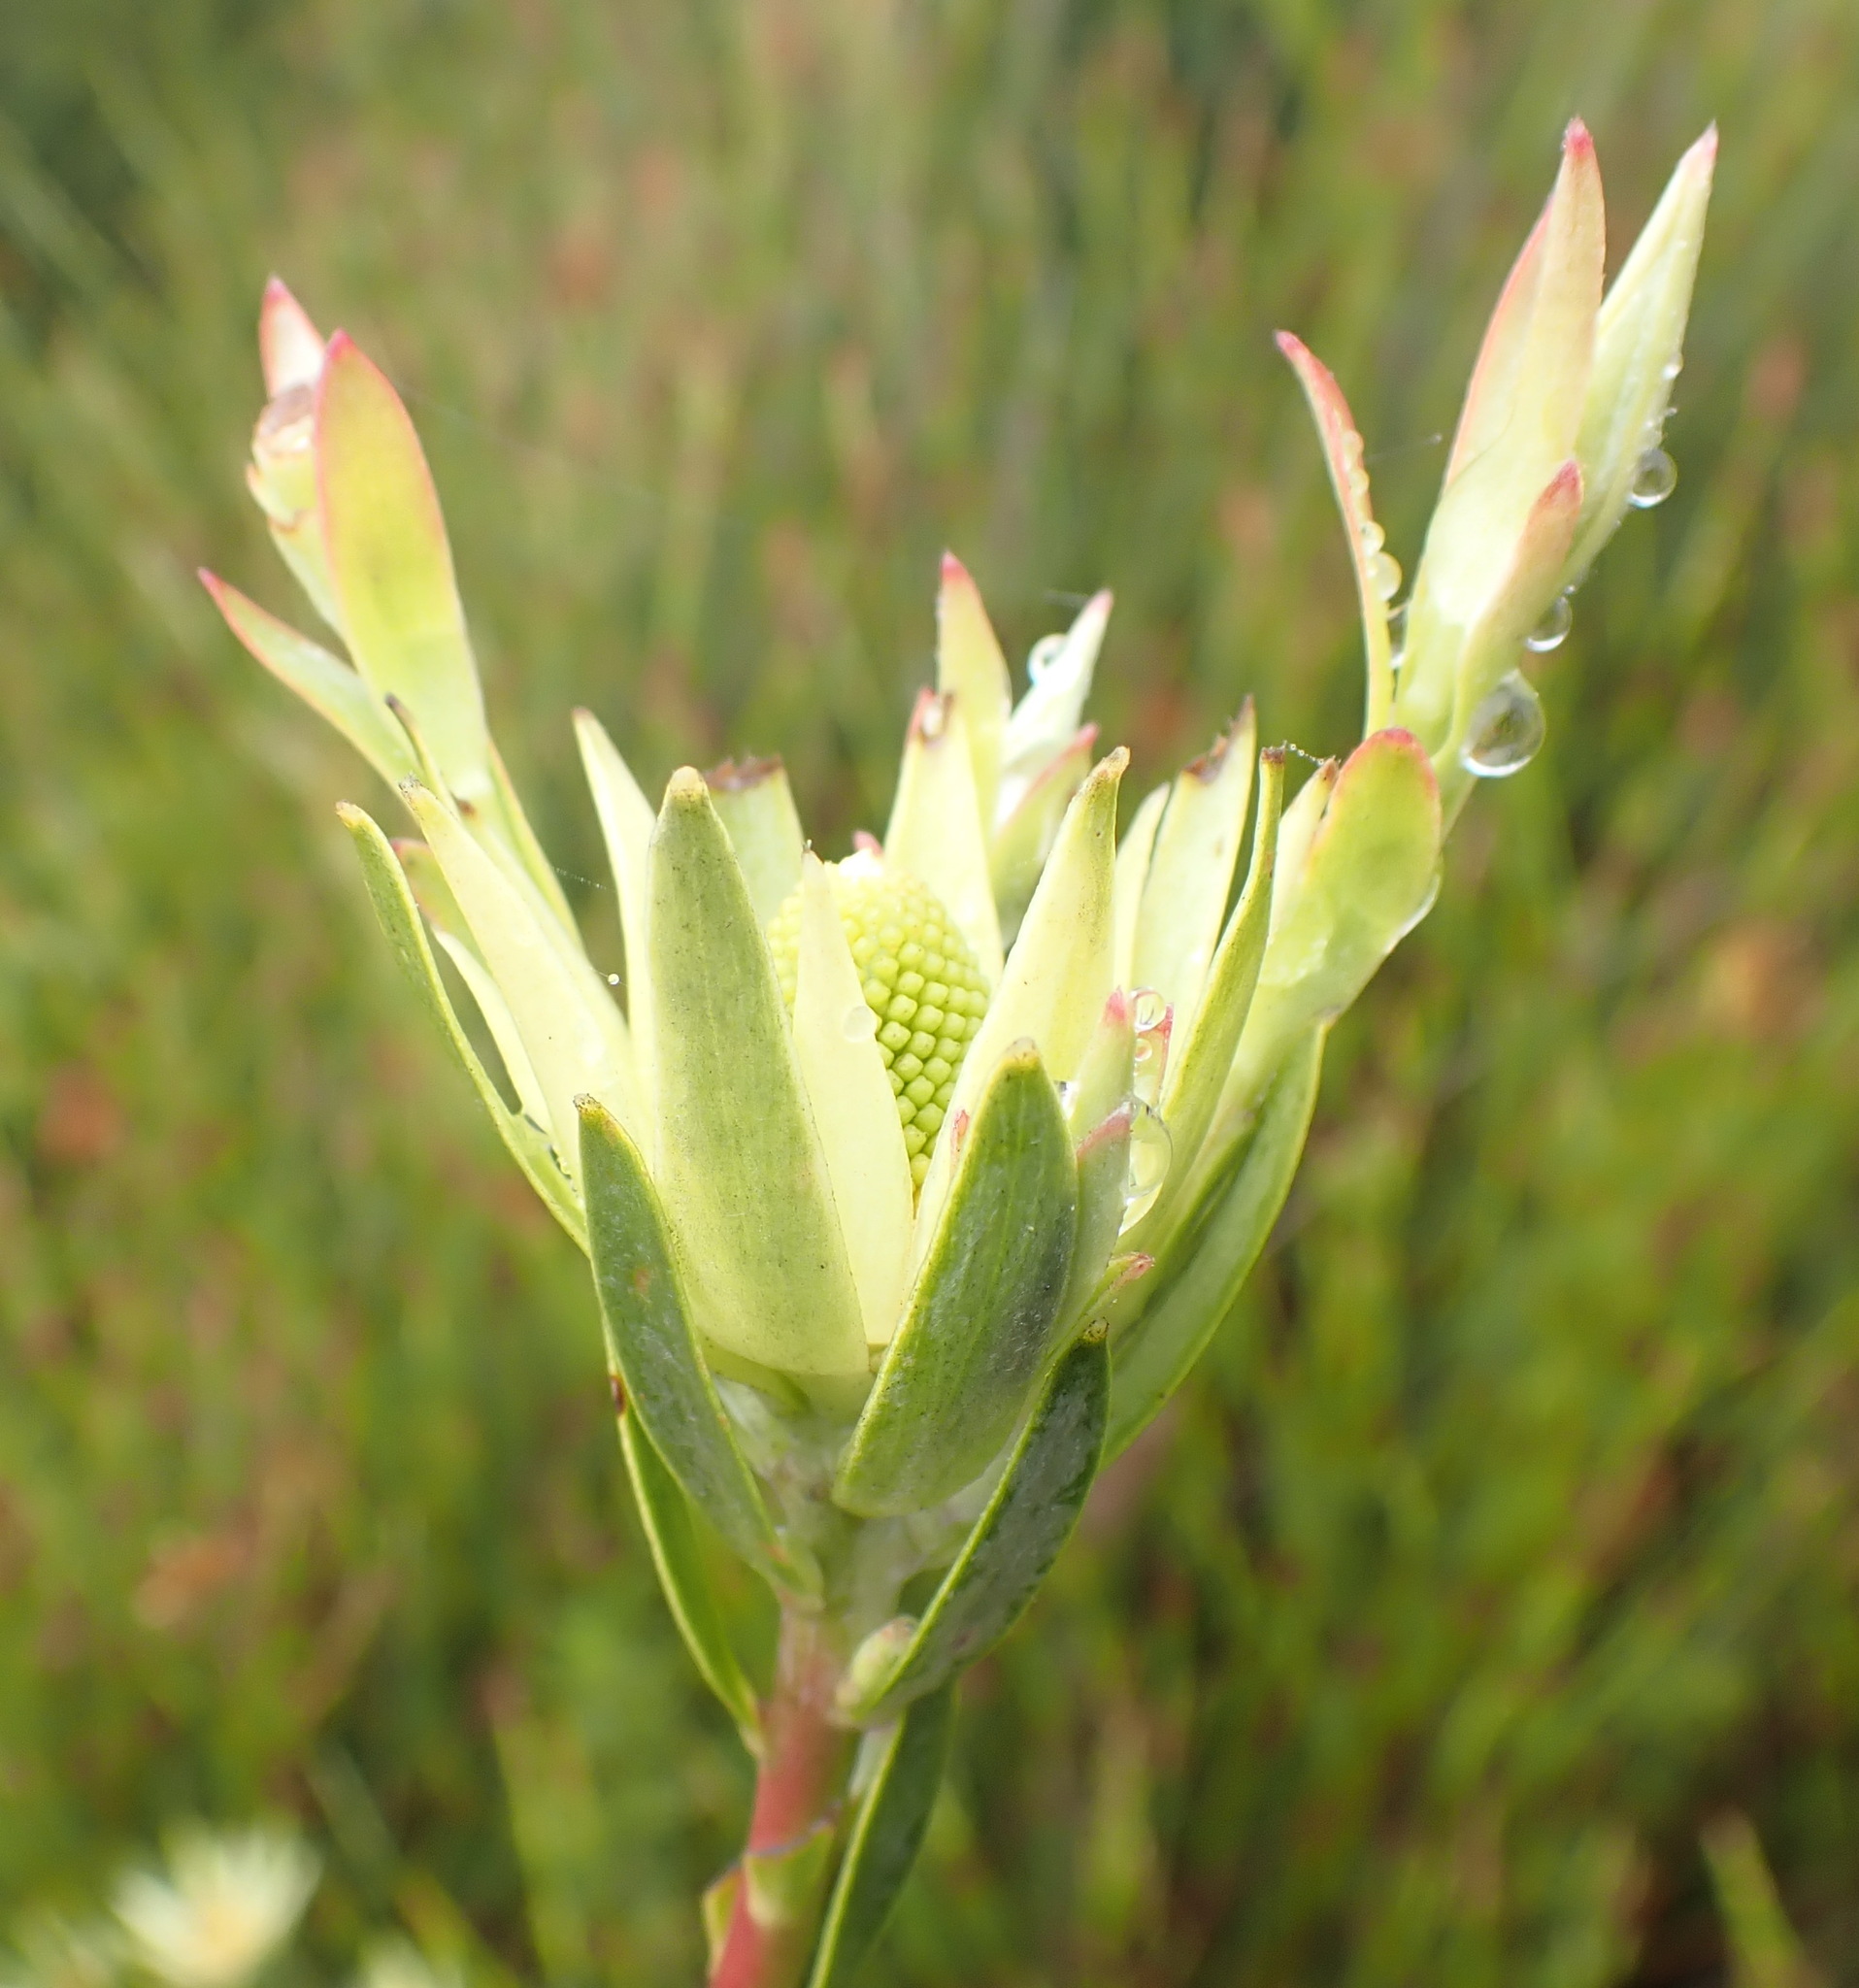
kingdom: Plantae
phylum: Tracheophyta
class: Magnoliopsida
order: Proteales
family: Proteaceae
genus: Leucadendron
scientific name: Leucadendron uliginosum
